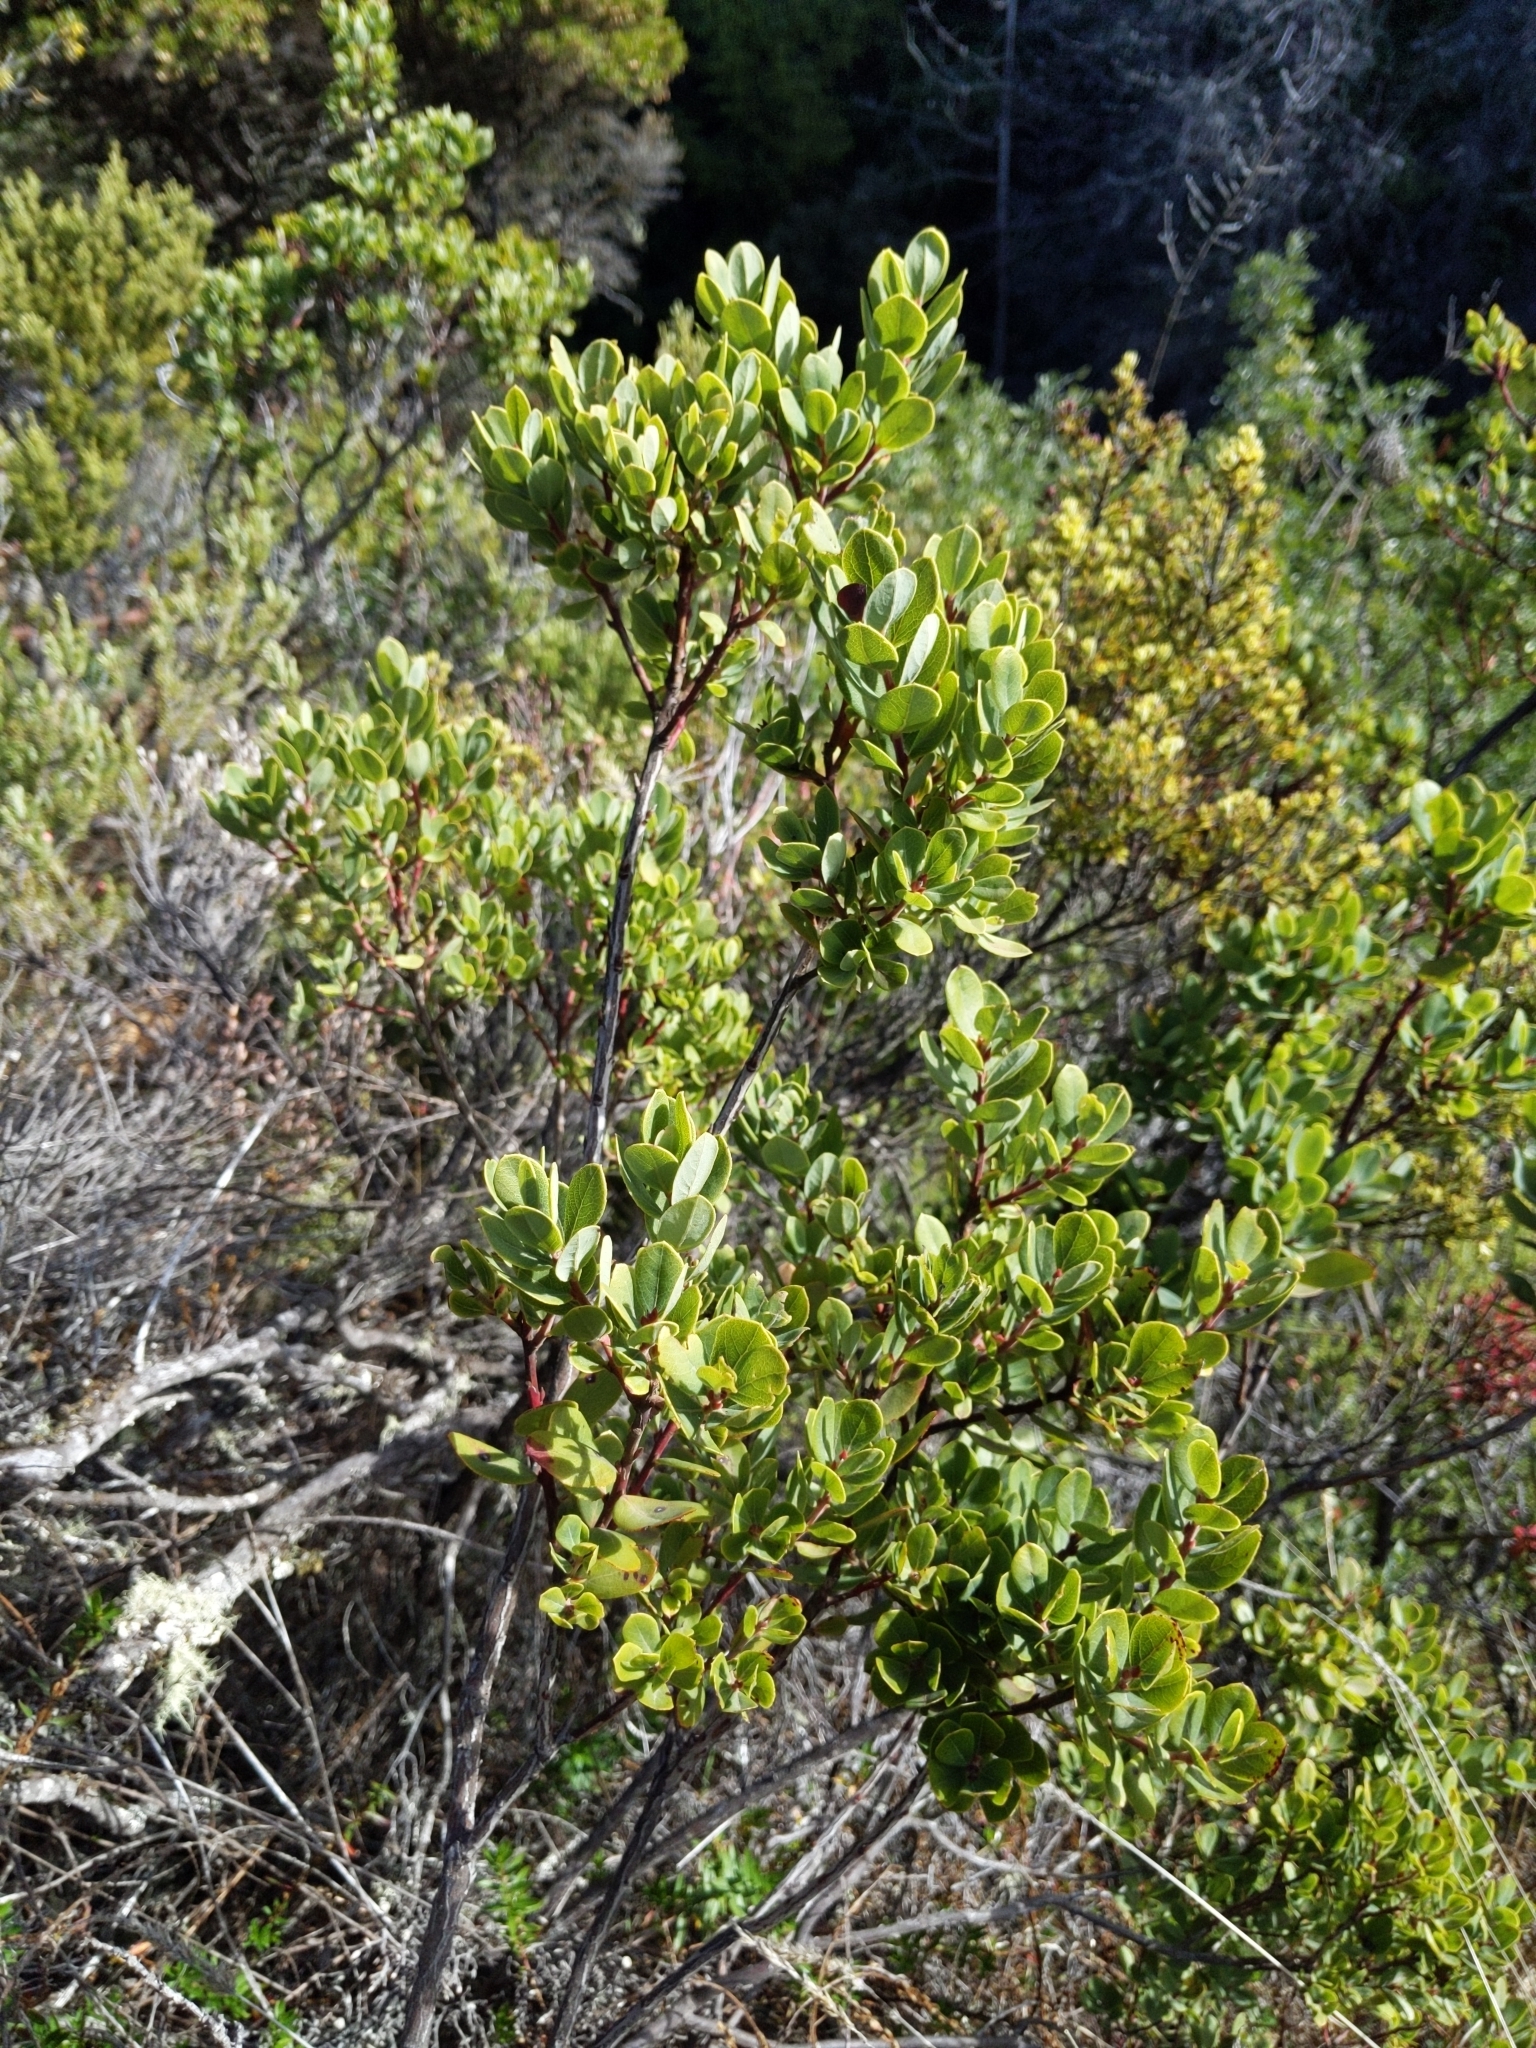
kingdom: Plantae
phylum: Tracheophyta
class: Magnoliopsida
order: Ericales
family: Ericaceae
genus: Vaccinium
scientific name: Vaccinium reticulatum
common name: Ohelo
